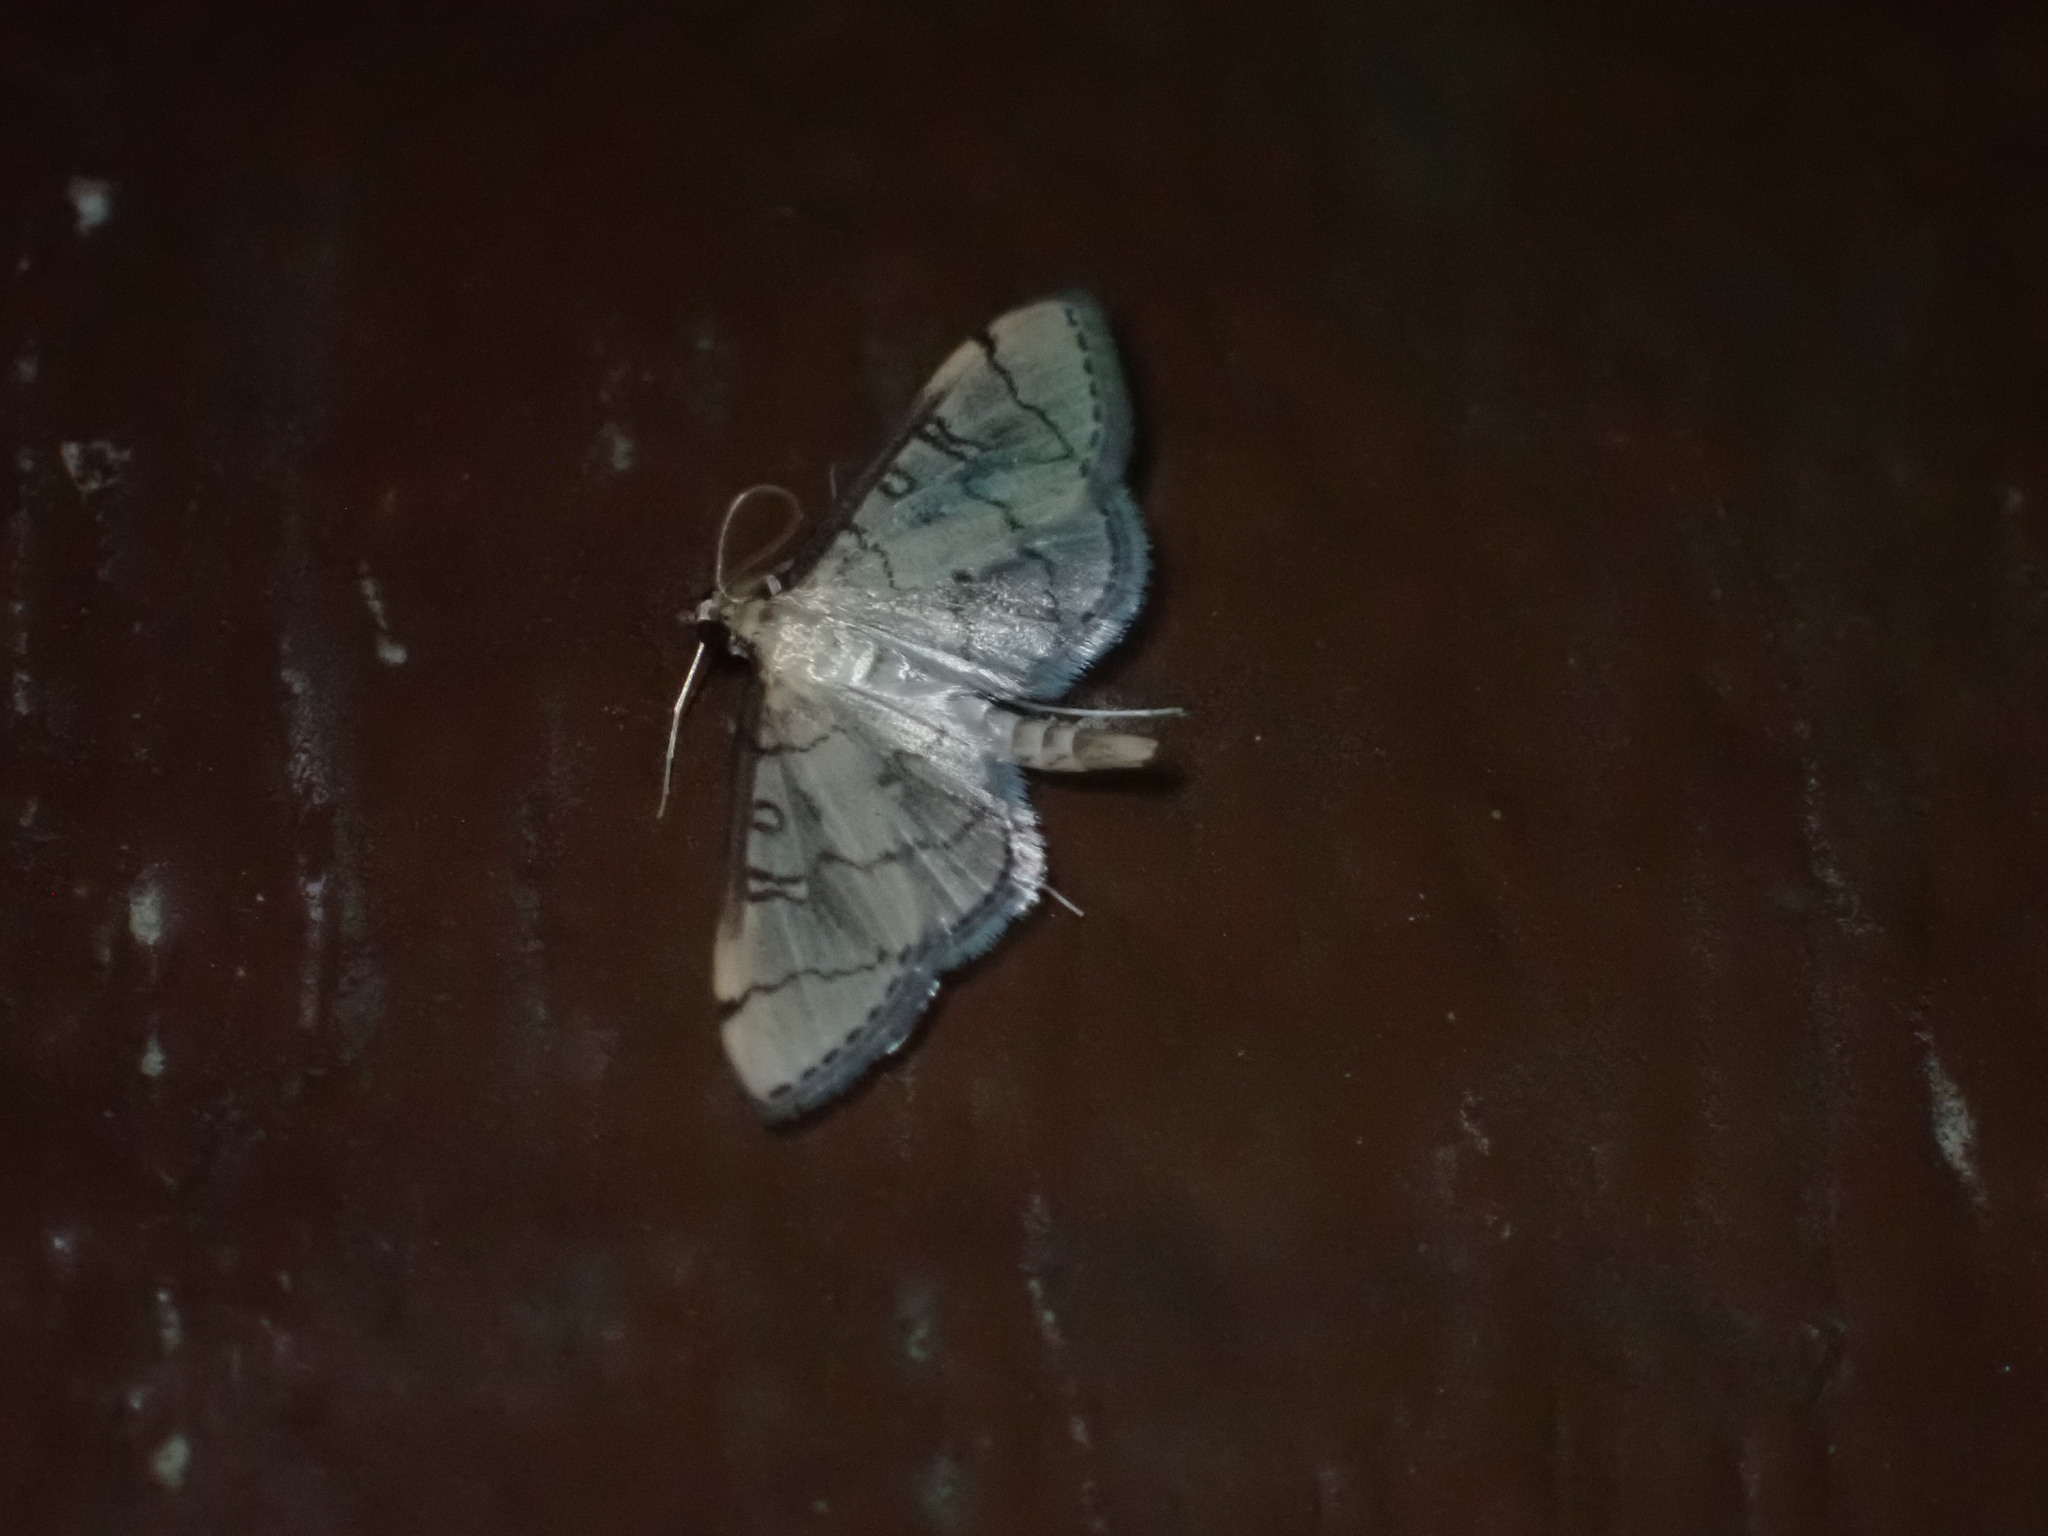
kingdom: Animalia
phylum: Arthropoda
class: Insecta
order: Lepidoptera
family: Crambidae
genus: Lamprosema
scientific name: Lamprosema Blepharomastix ranalis
